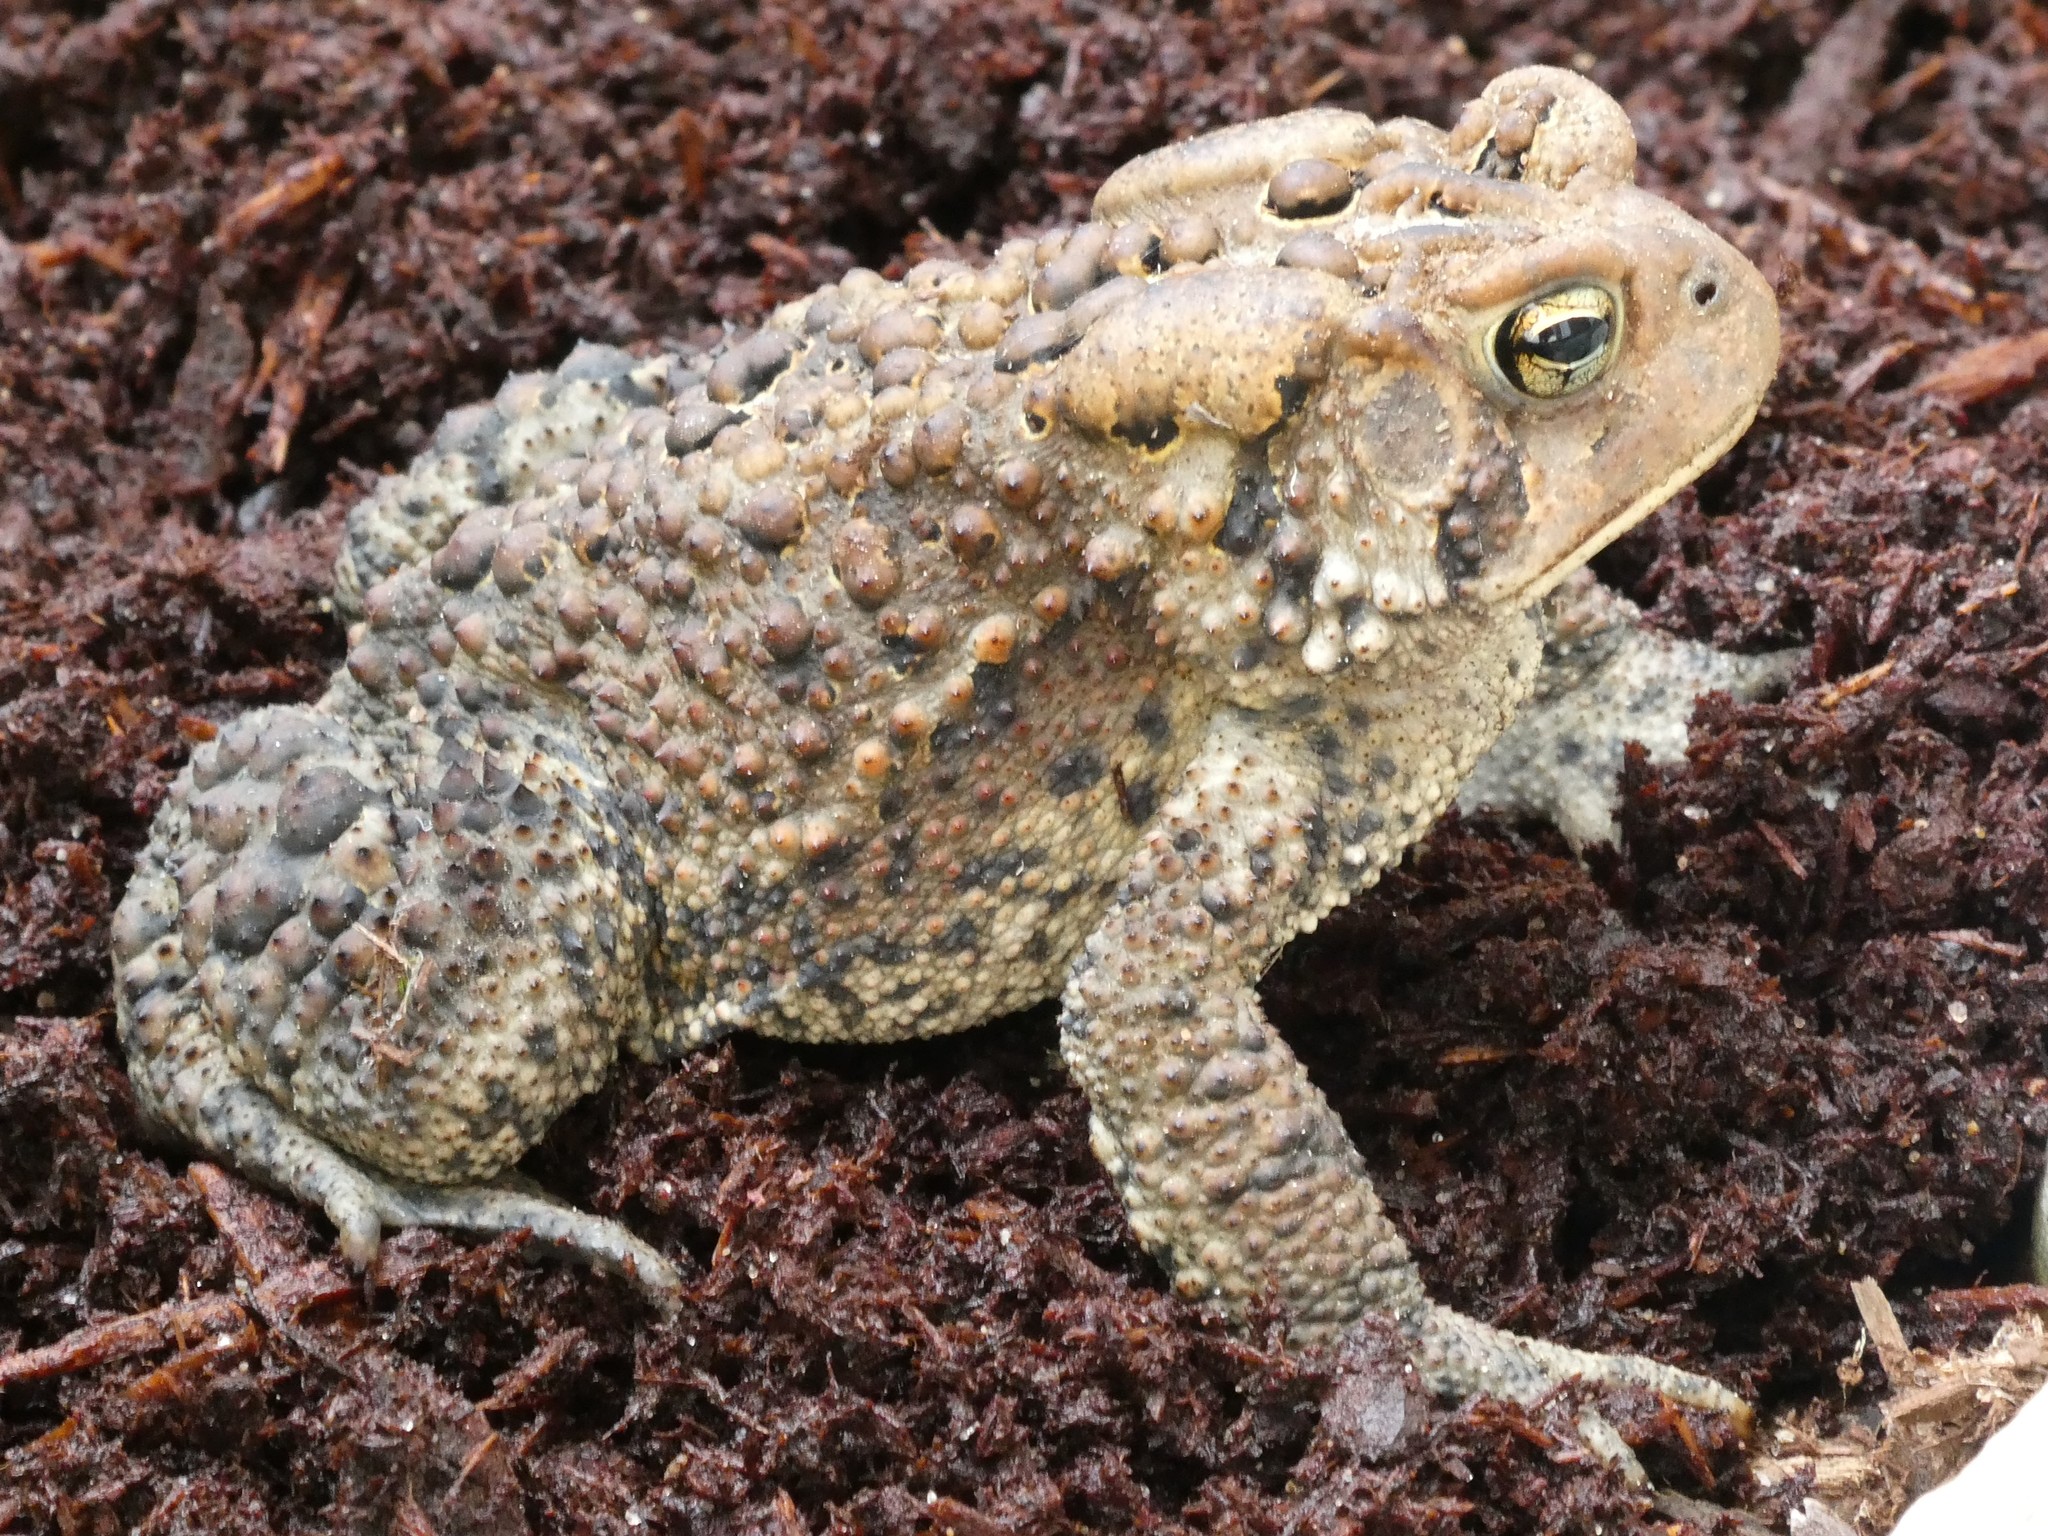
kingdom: Animalia
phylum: Chordata
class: Amphibia
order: Anura
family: Bufonidae
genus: Anaxyrus
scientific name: Anaxyrus americanus
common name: American toad
